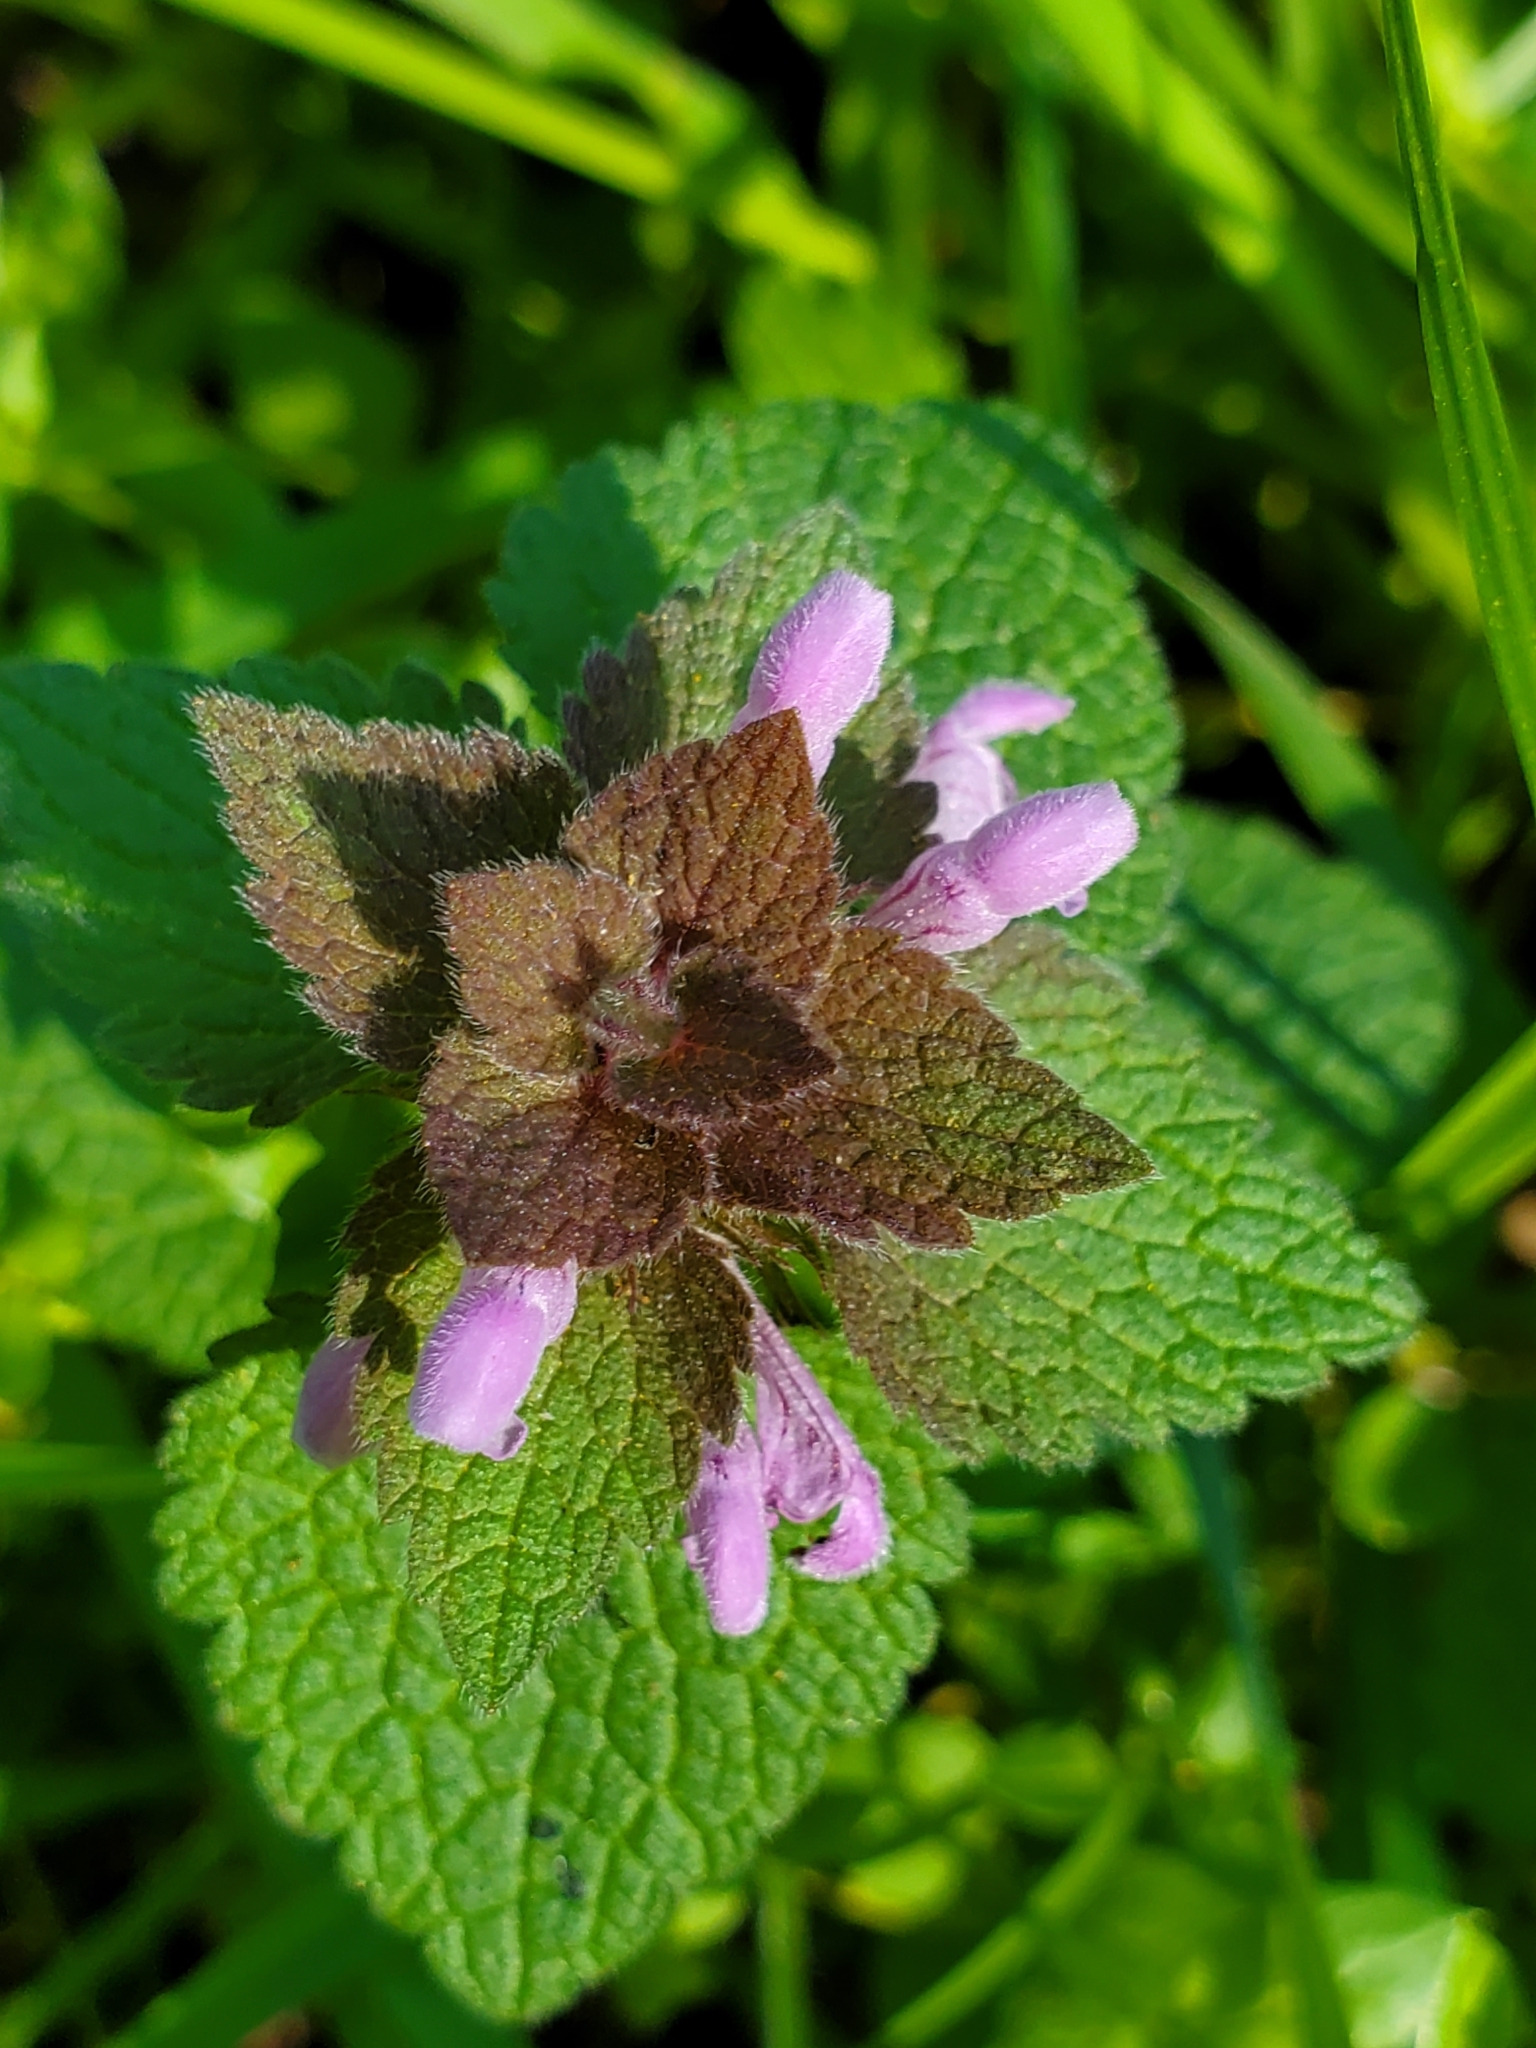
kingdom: Plantae
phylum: Tracheophyta
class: Magnoliopsida
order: Lamiales
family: Lamiaceae
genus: Lamium
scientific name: Lamium purpureum
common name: Red dead-nettle
